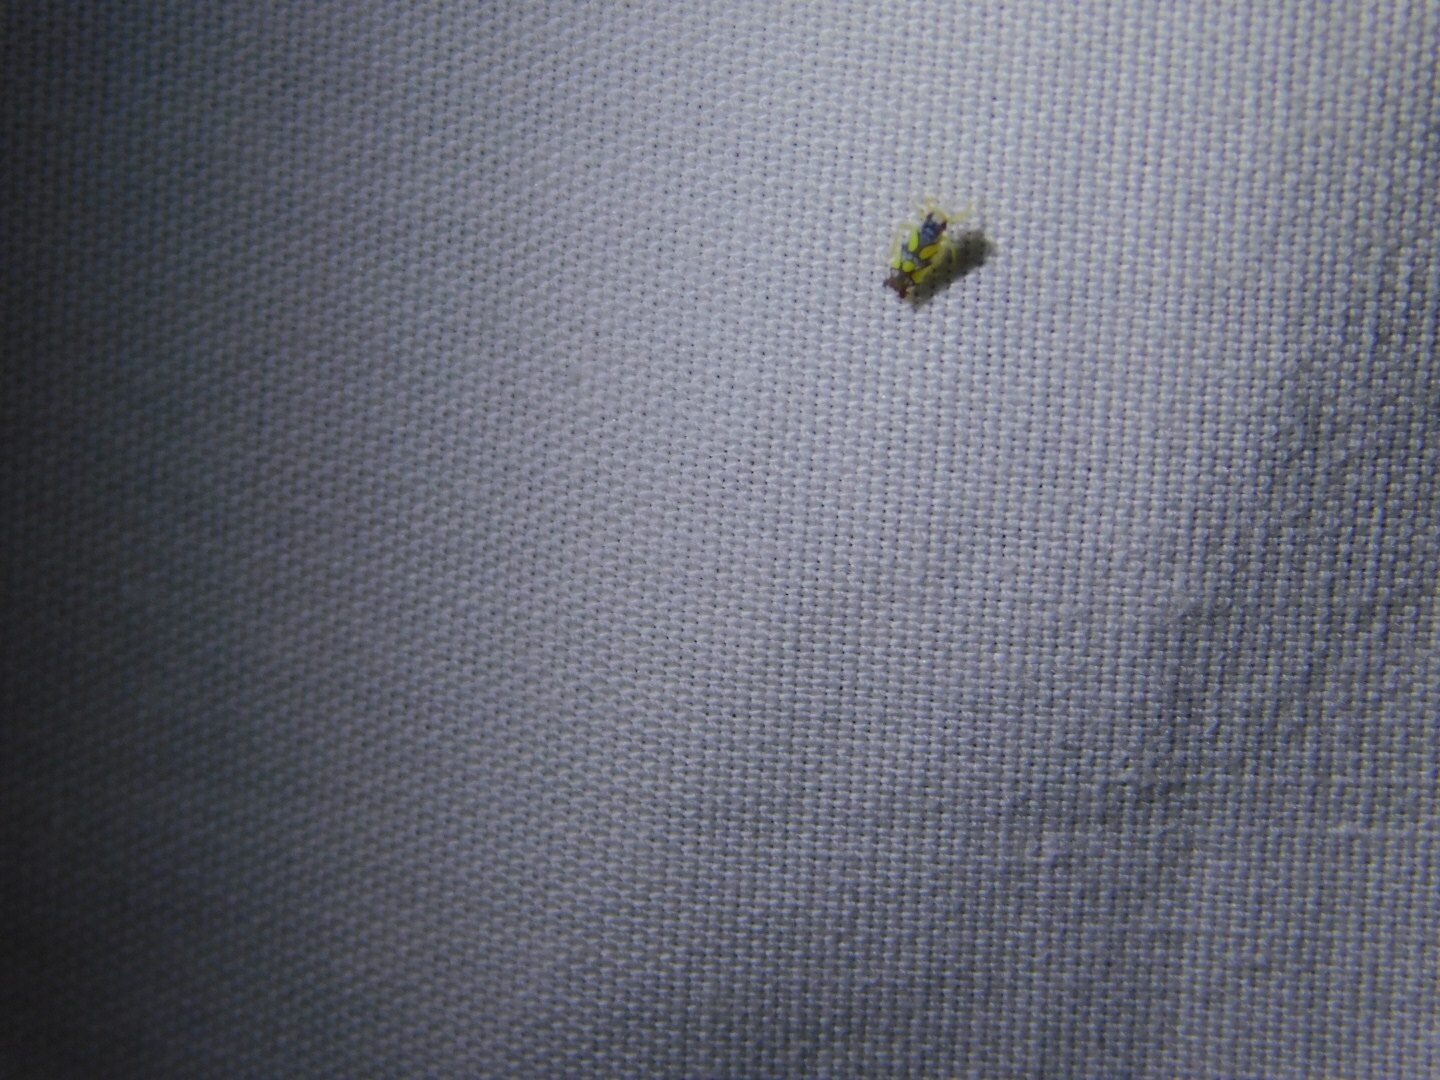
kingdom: Animalia
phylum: Arthropoda
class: Insecta
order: Hemiptera
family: Cicadellidae
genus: Protalebrella
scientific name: Protalebrella brasiliensis
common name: Brasilian leafhopper
